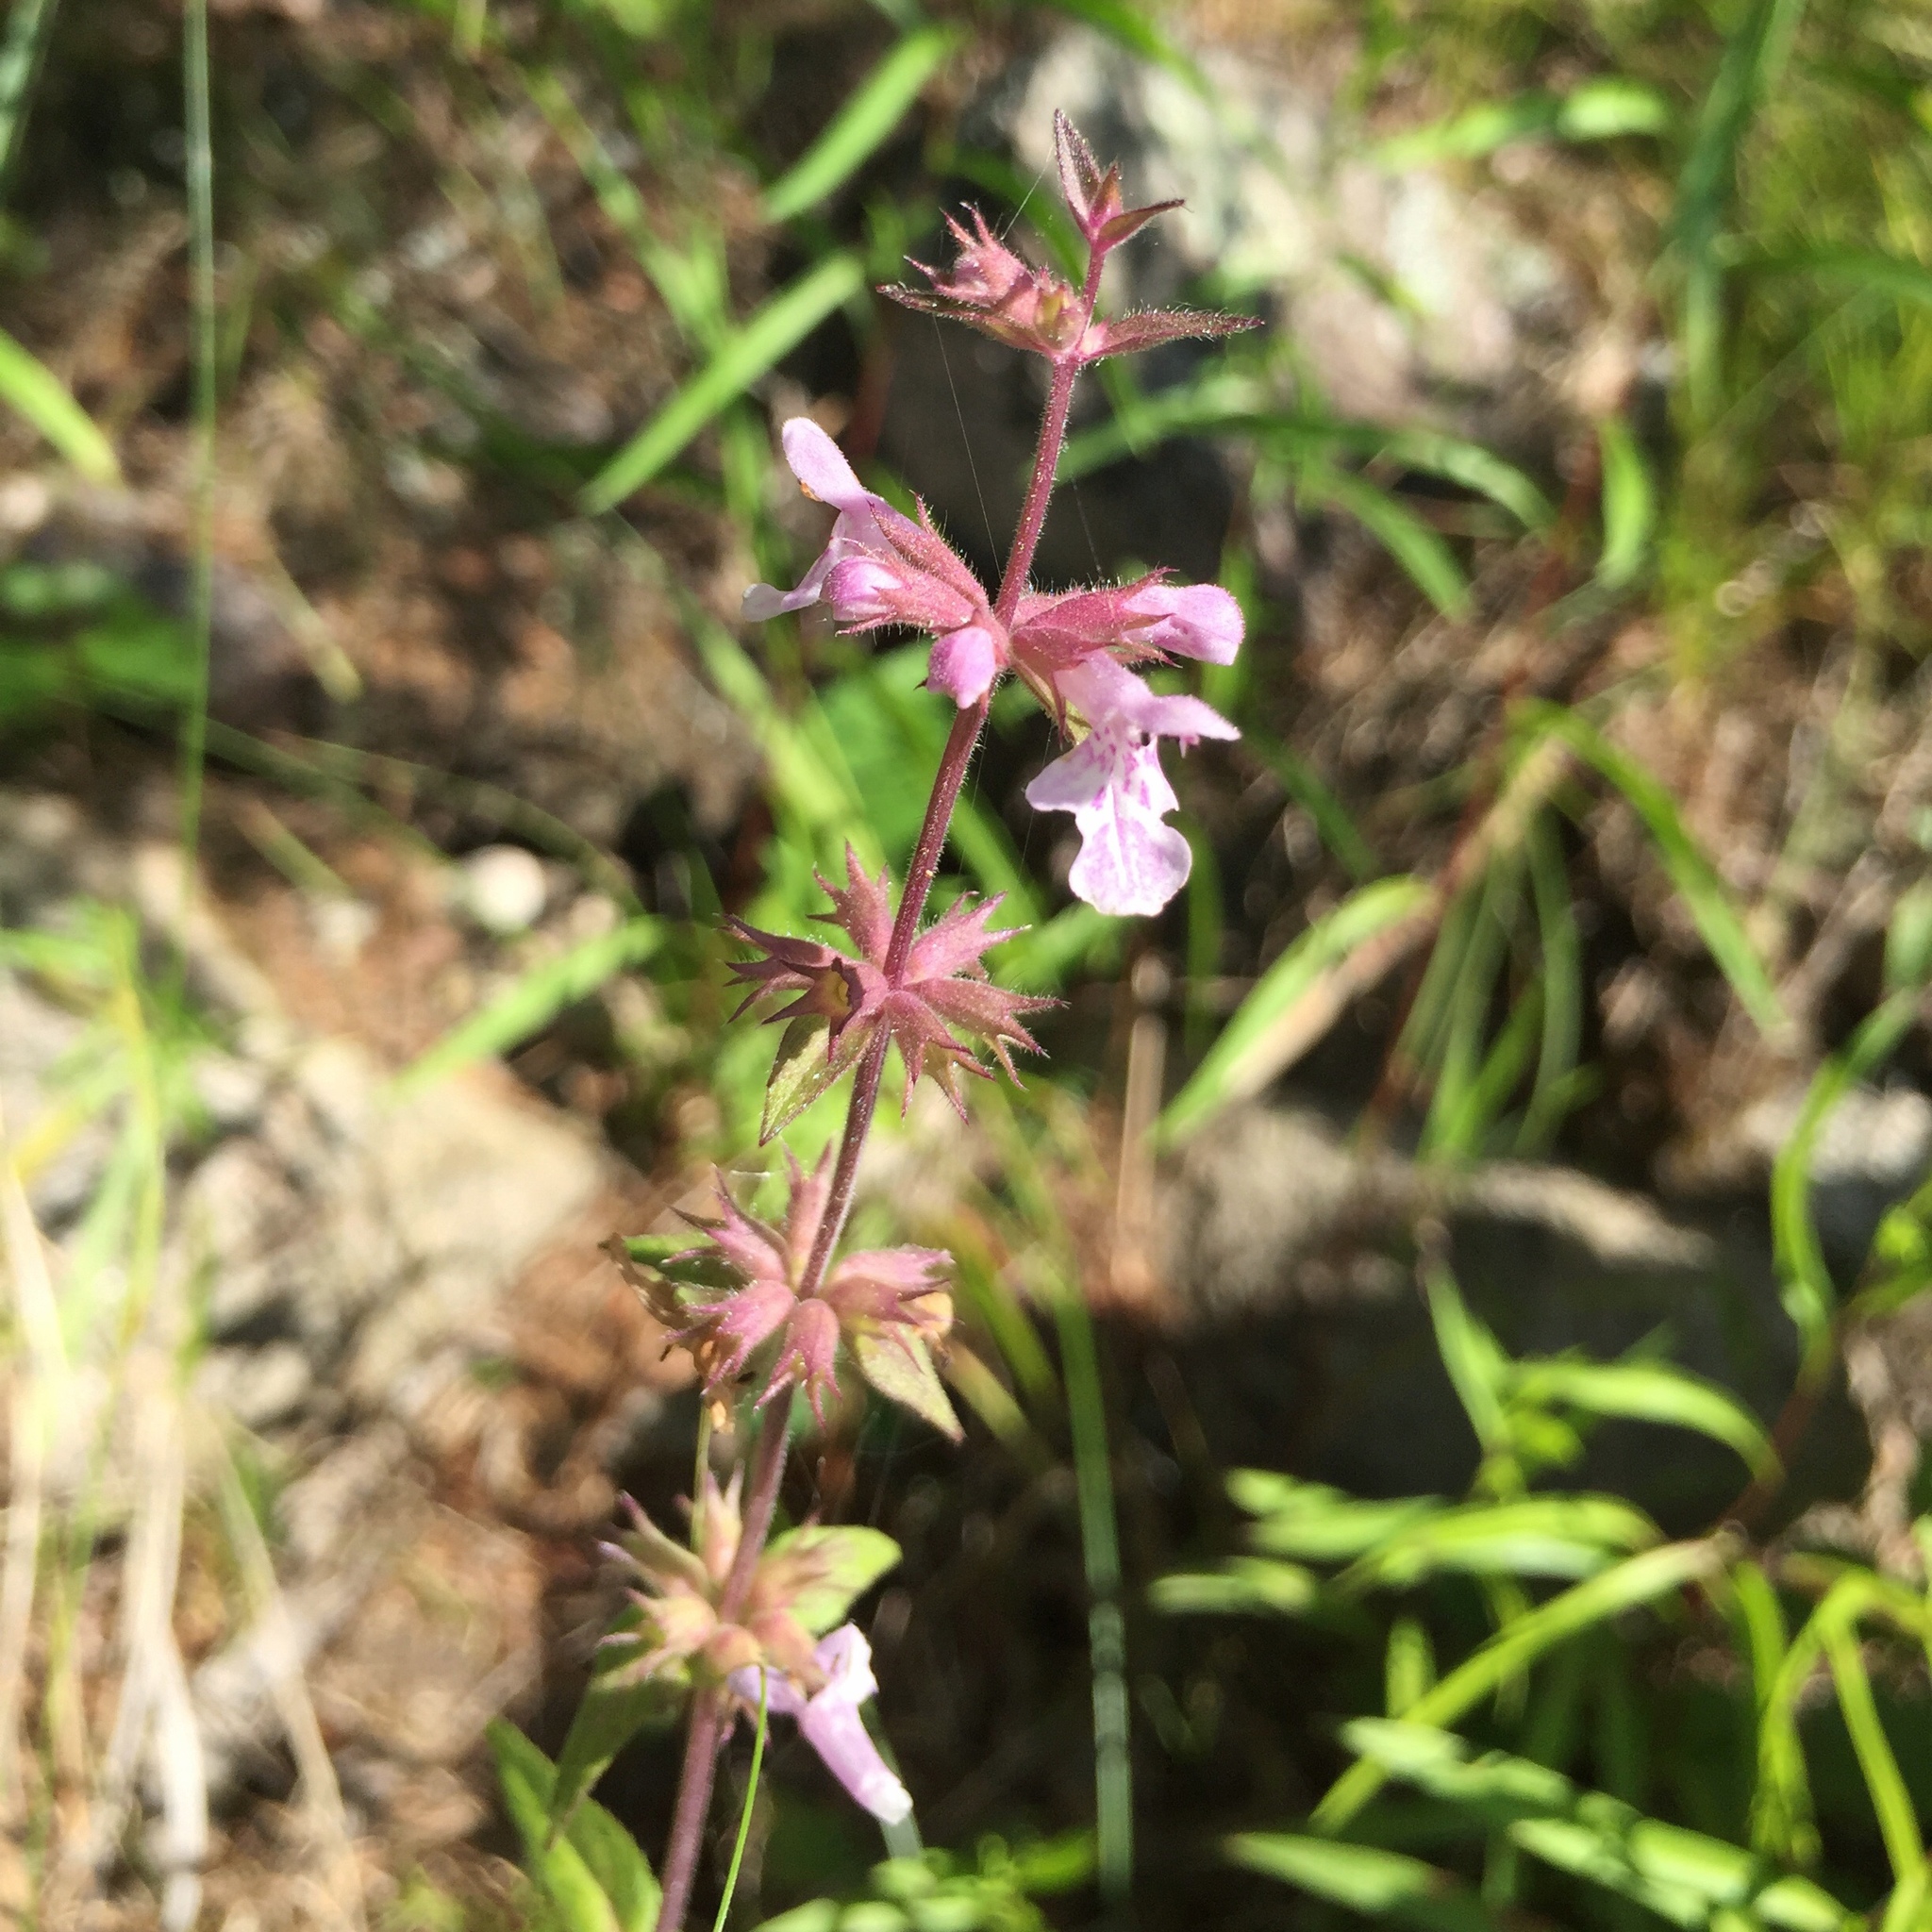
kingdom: Plantae
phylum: Tracheophyta
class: Magnoliopsida
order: Lamiales
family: Lamiaceae
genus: Stachys
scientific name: Stachys palustris
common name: Marsh woundwort
